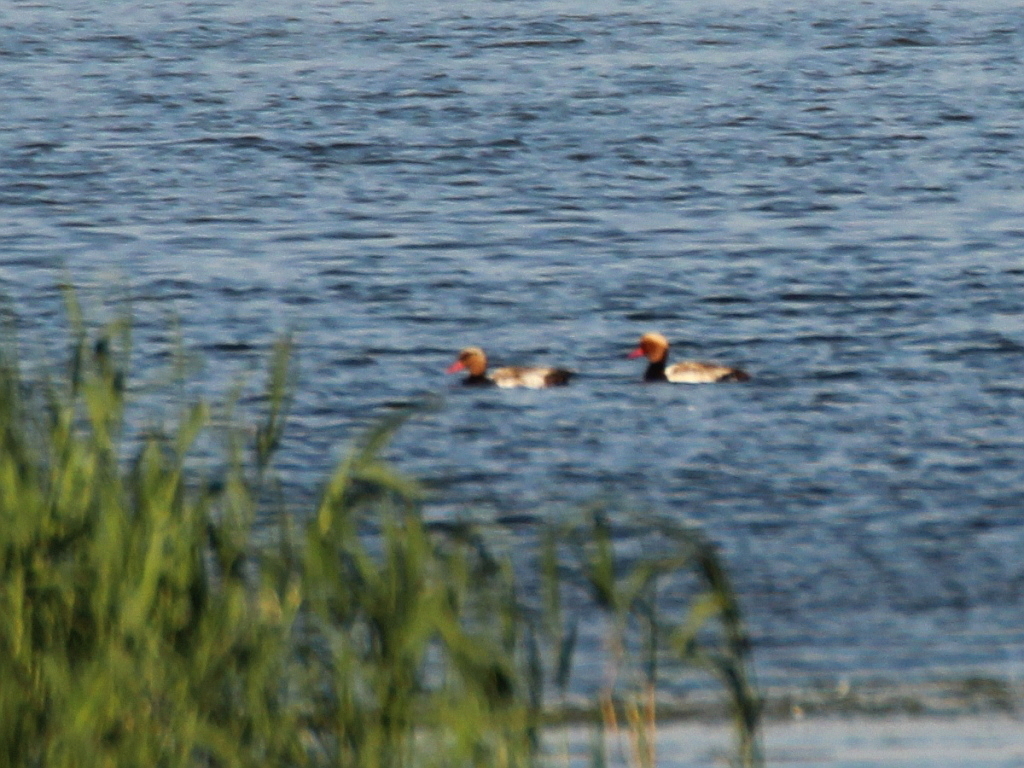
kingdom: Animalia
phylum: Chordata
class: Aves
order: Anseriformes
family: Anatidae
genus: Netta
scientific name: Netta rufina
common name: Red-crested pochard
